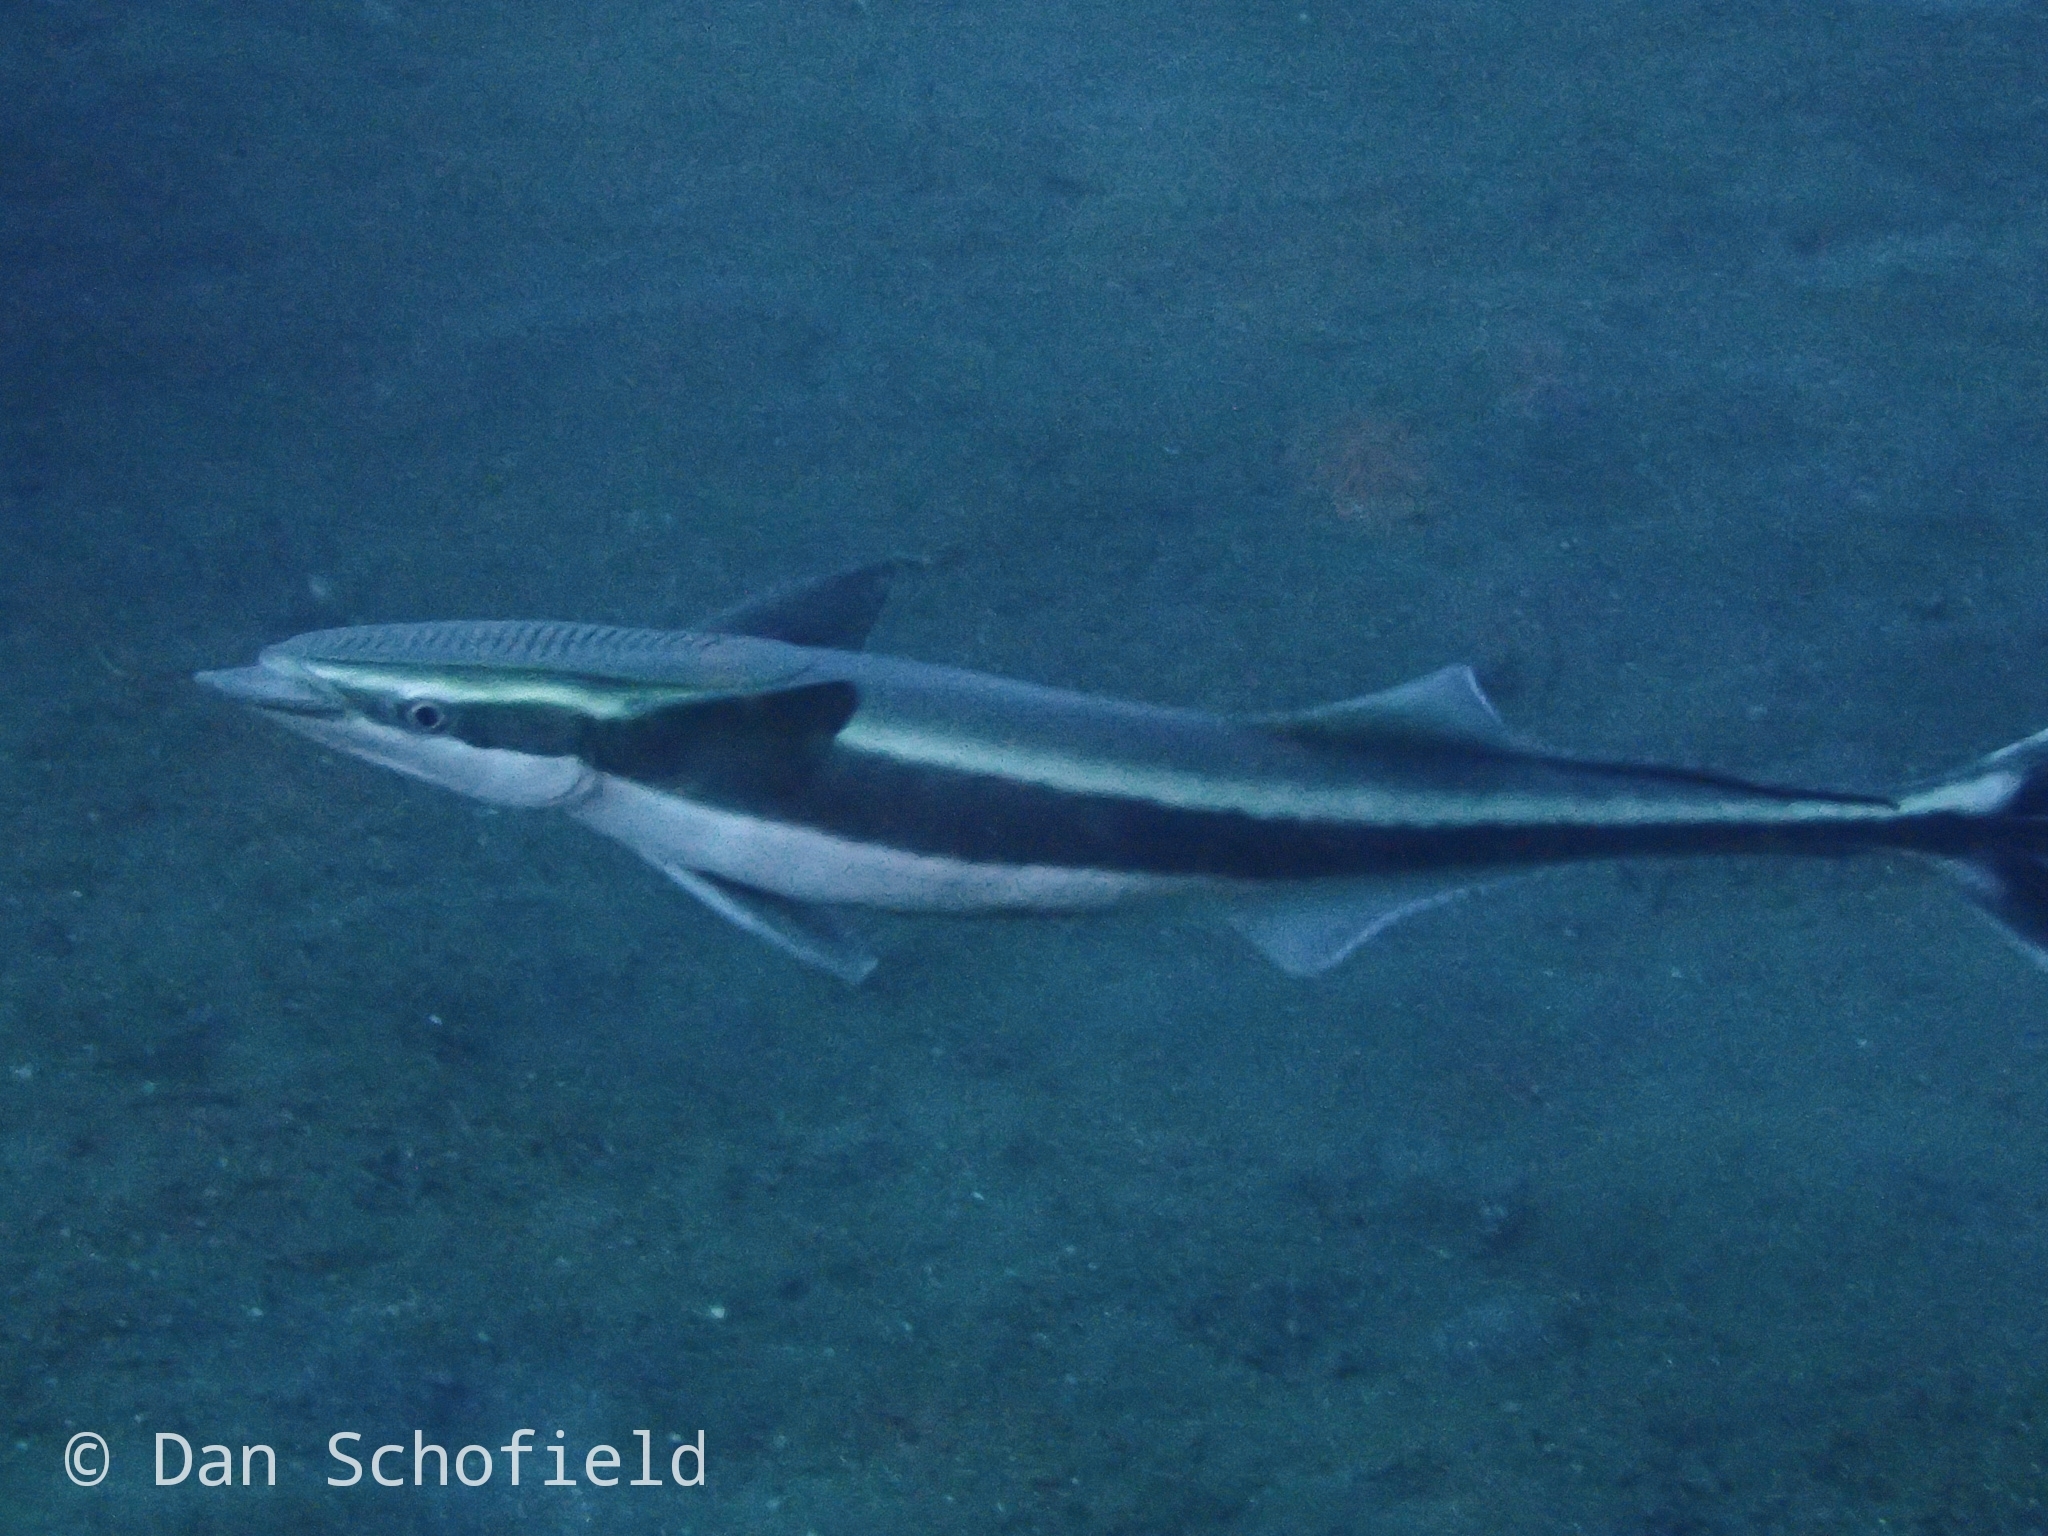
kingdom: Animalia
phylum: Chordata
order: Perciformes
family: Echeneidae
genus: Echeneis
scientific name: Echeneis naucrates
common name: Sharksucker
